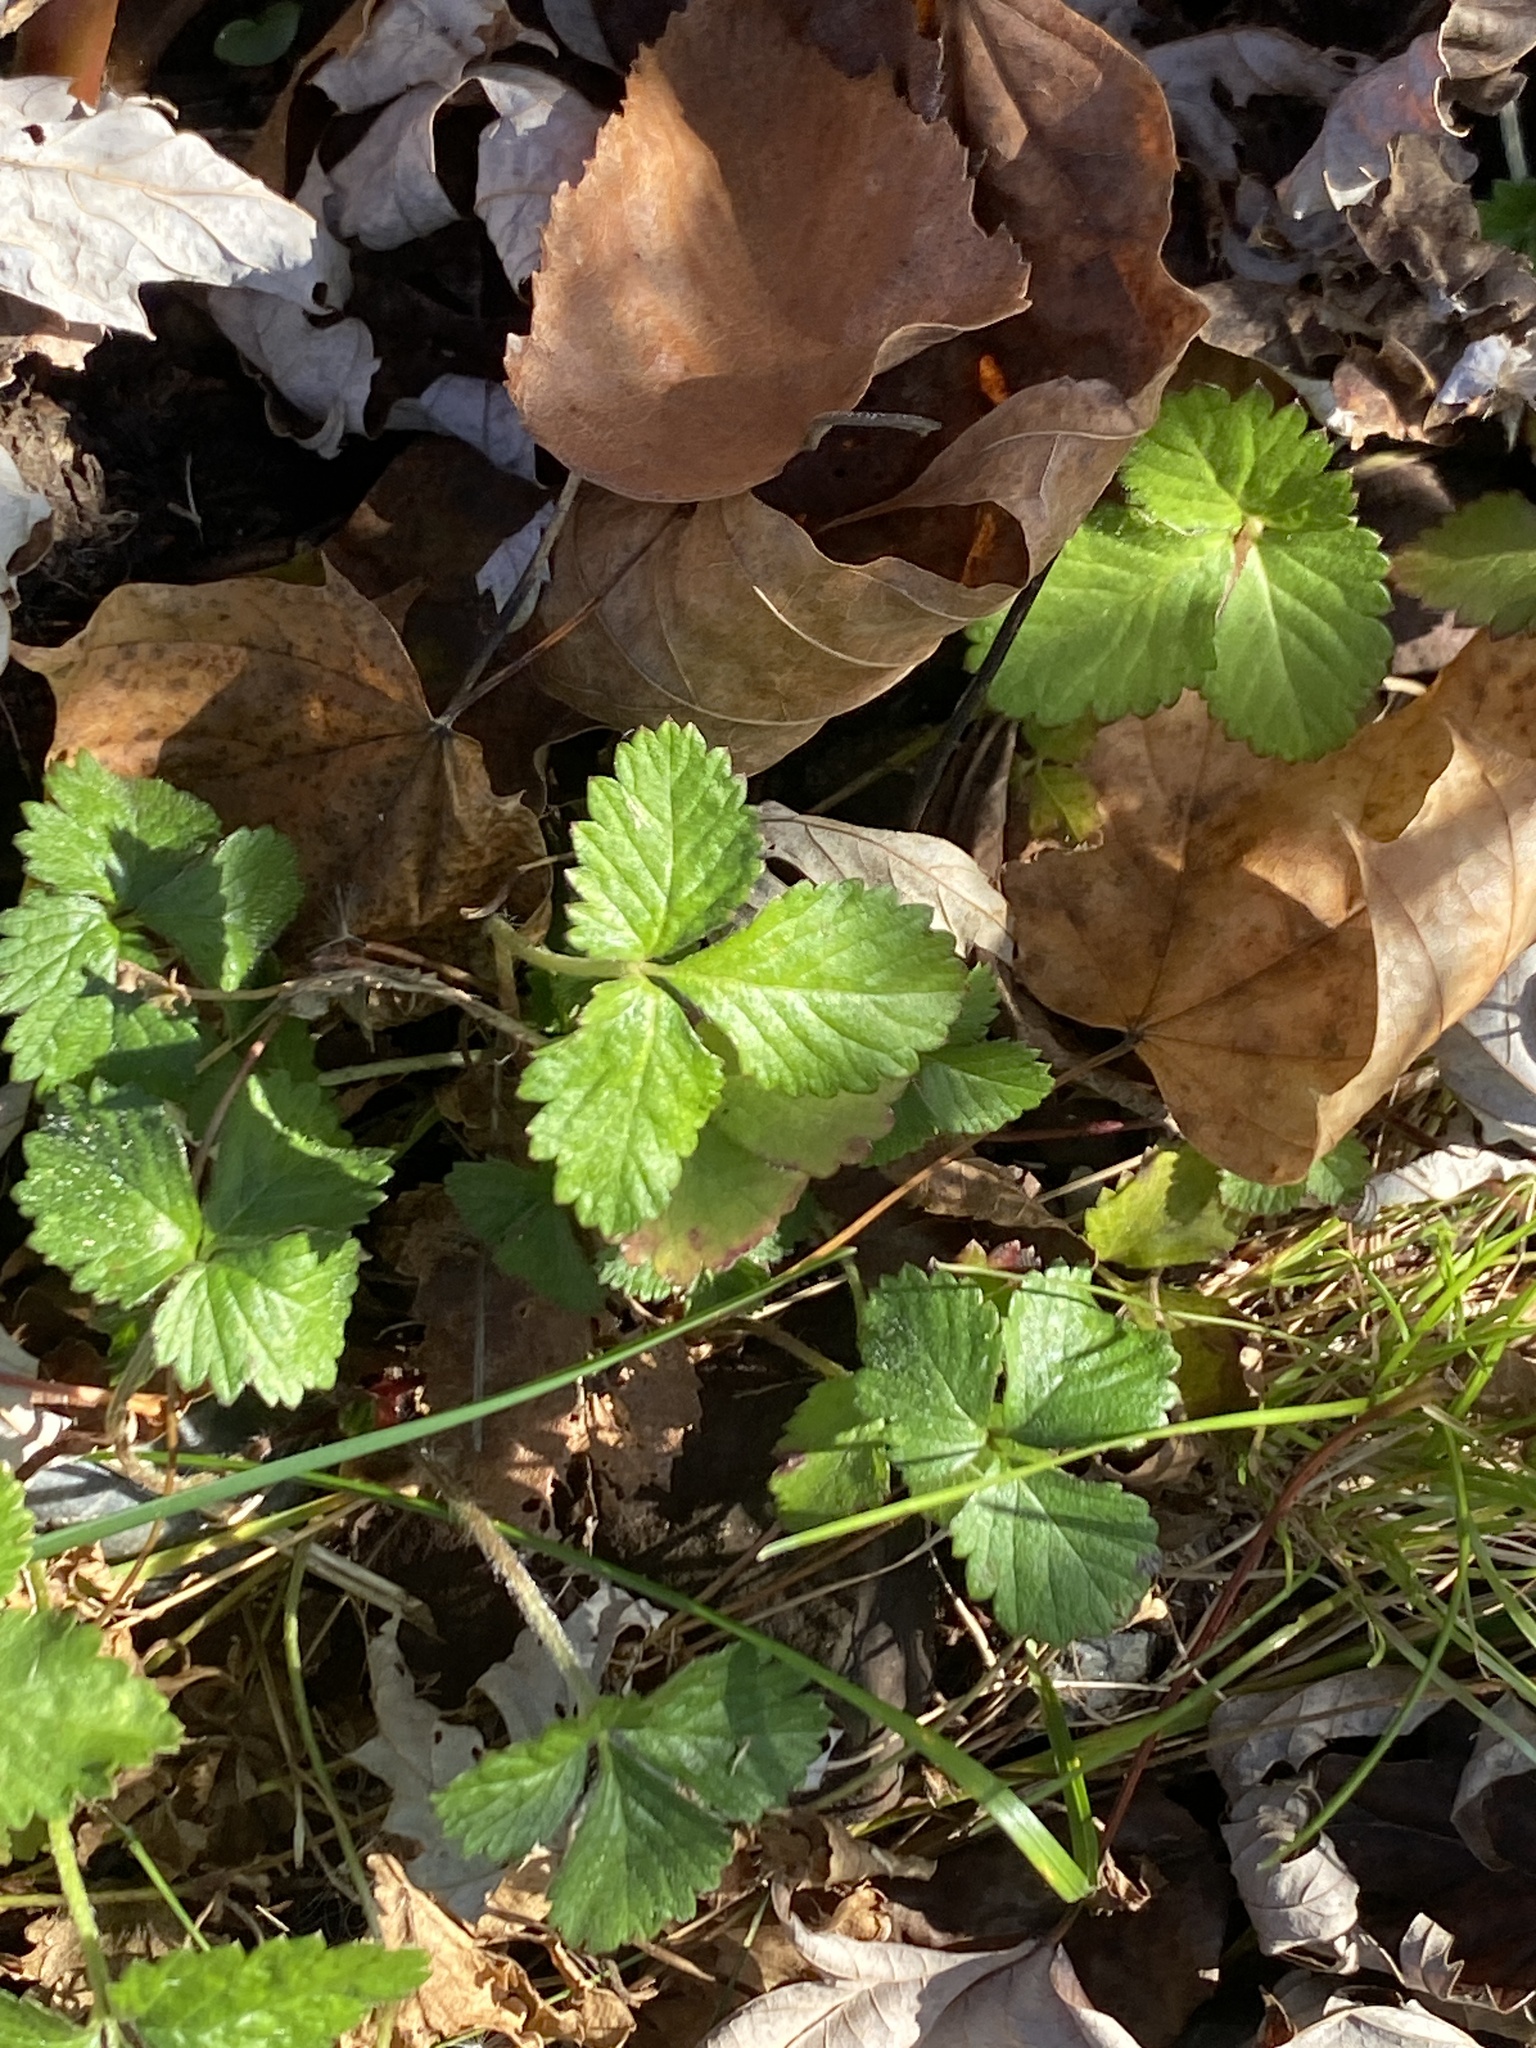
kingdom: Plantae
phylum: Tracheophyta
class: Magnoliopsida
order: Rosales
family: Rosaceae
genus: Potentilla
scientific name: Potentilla indica
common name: Yellow-flowered strawberry
